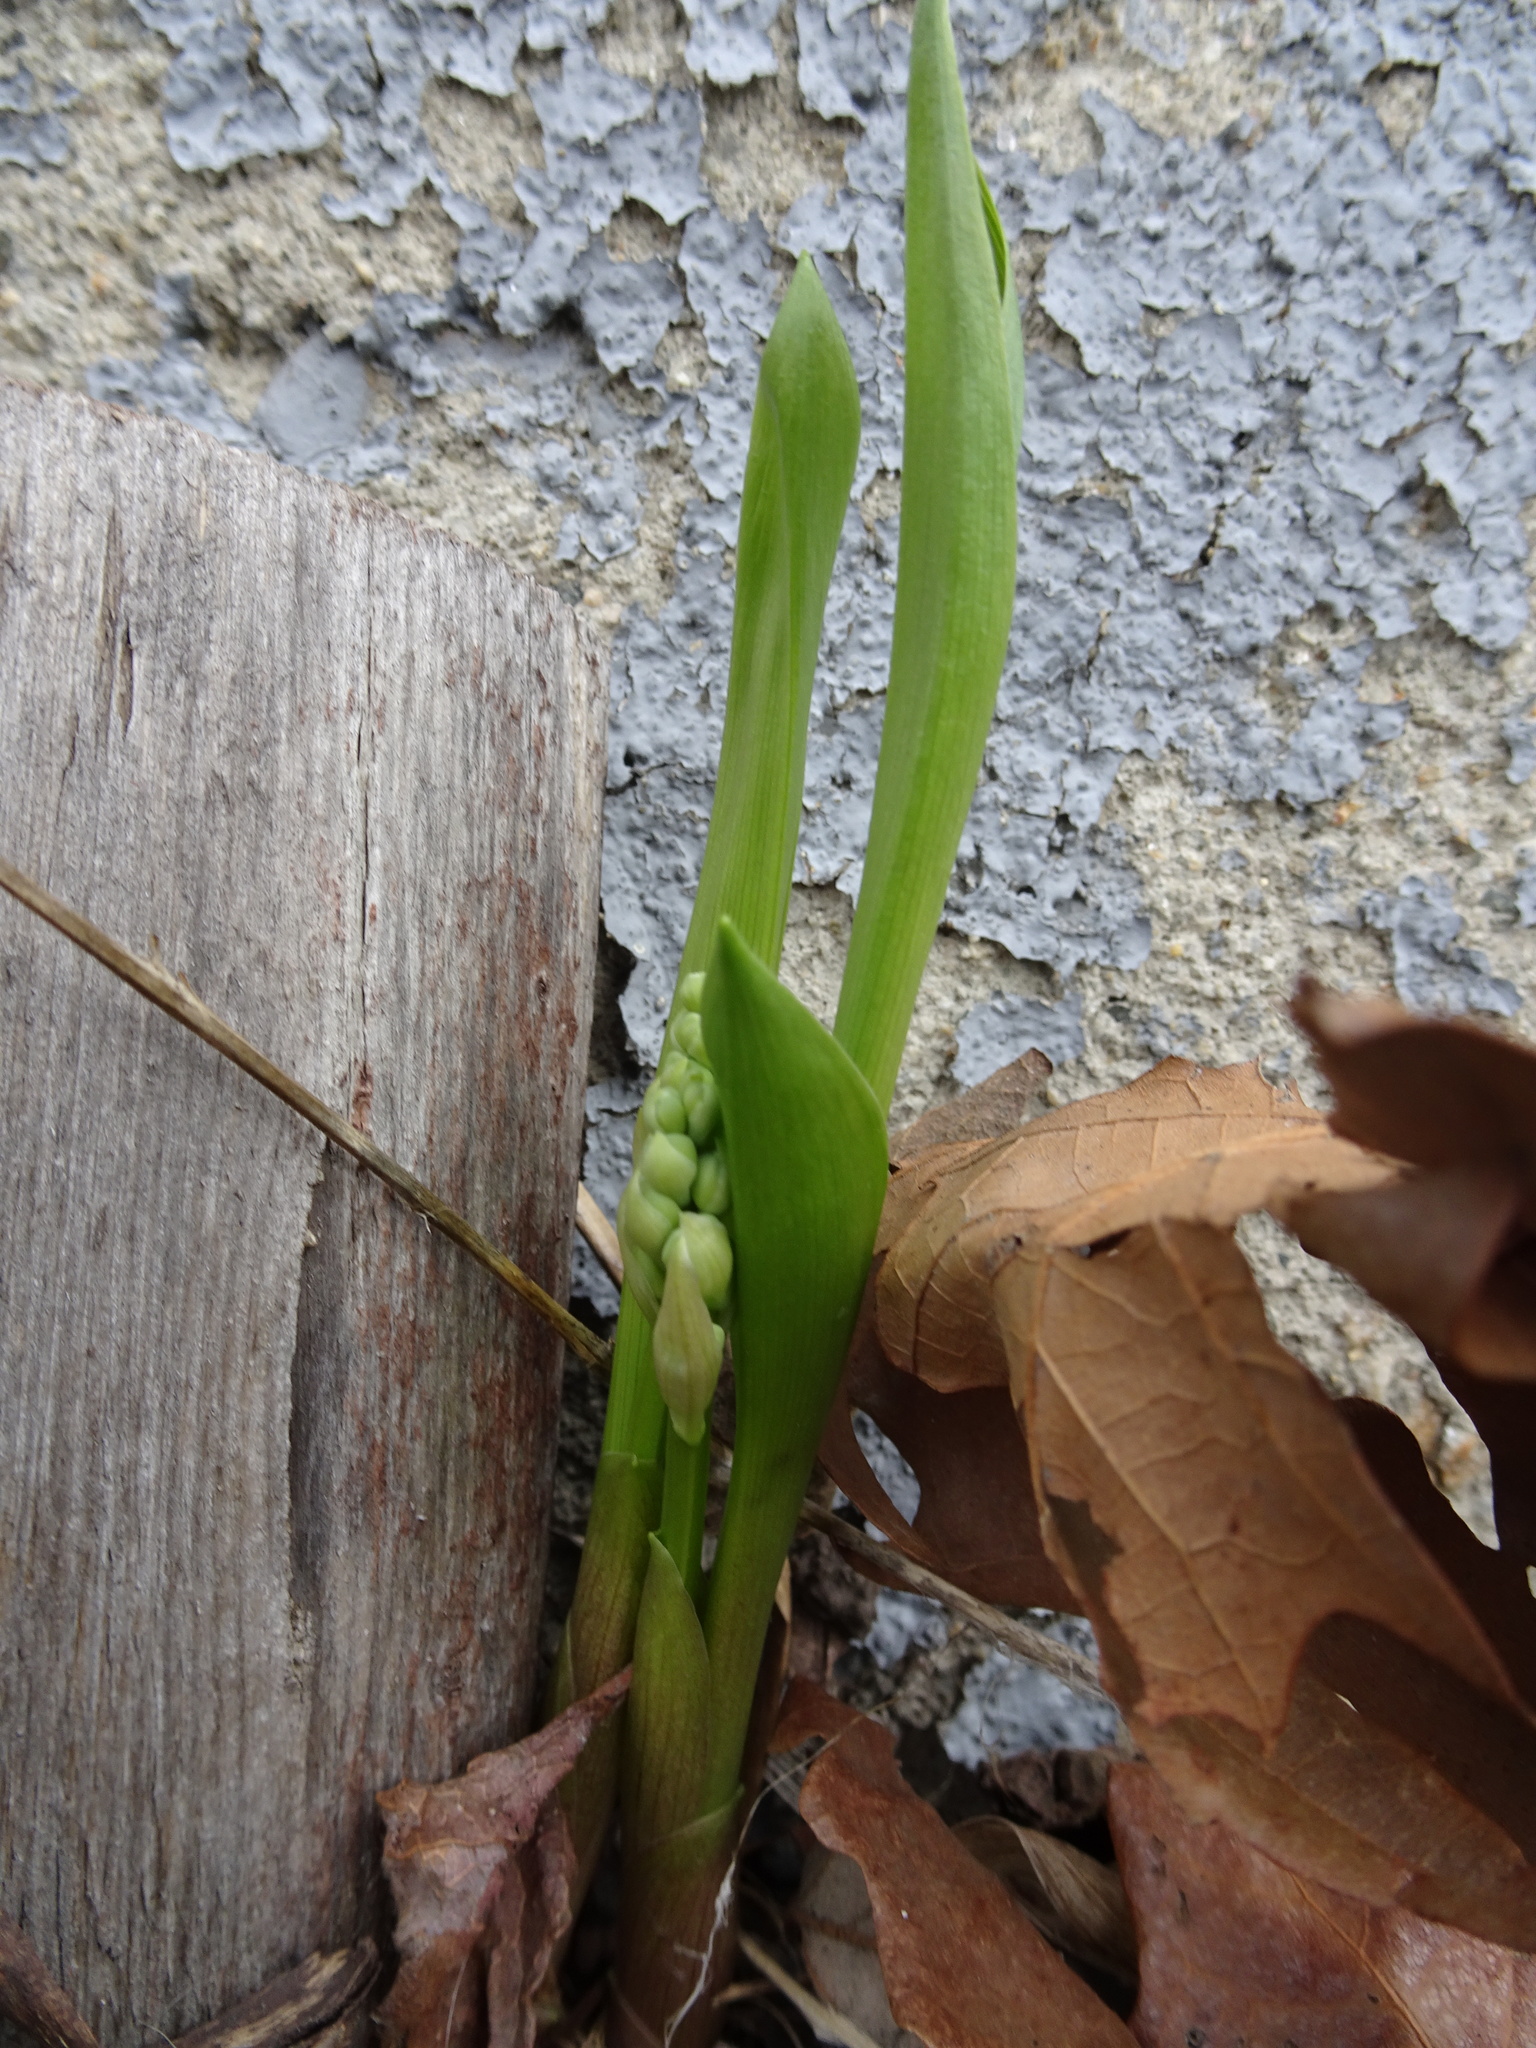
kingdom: Plantae
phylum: Tracheophyta
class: Liliopsida
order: Asparagales
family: Asparagaceae
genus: Convallaria
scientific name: Convallaria majalis
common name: Lily-of-the-valley
